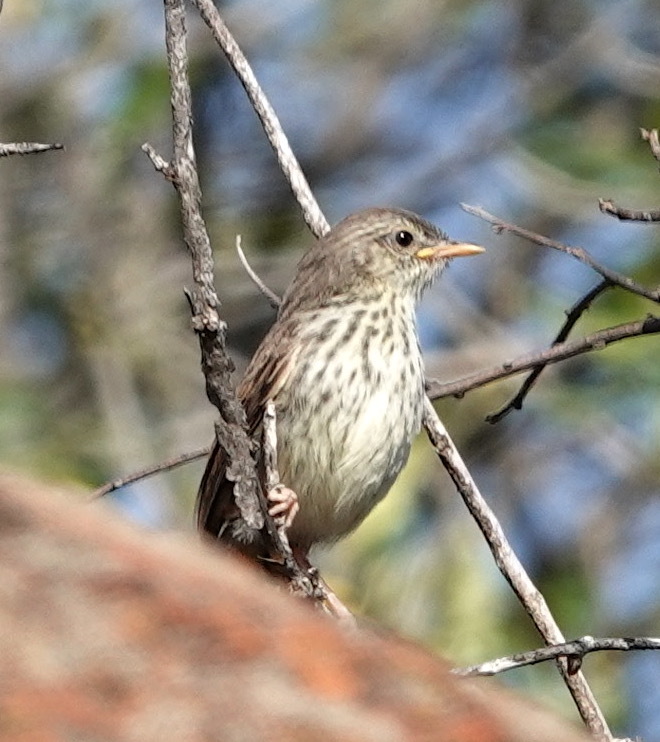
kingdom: Animalia
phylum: Chordata
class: Aves
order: Passeriformes
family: Cisticolidae
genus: Prinia
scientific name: Prinia maculosa
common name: Karoo prinia
